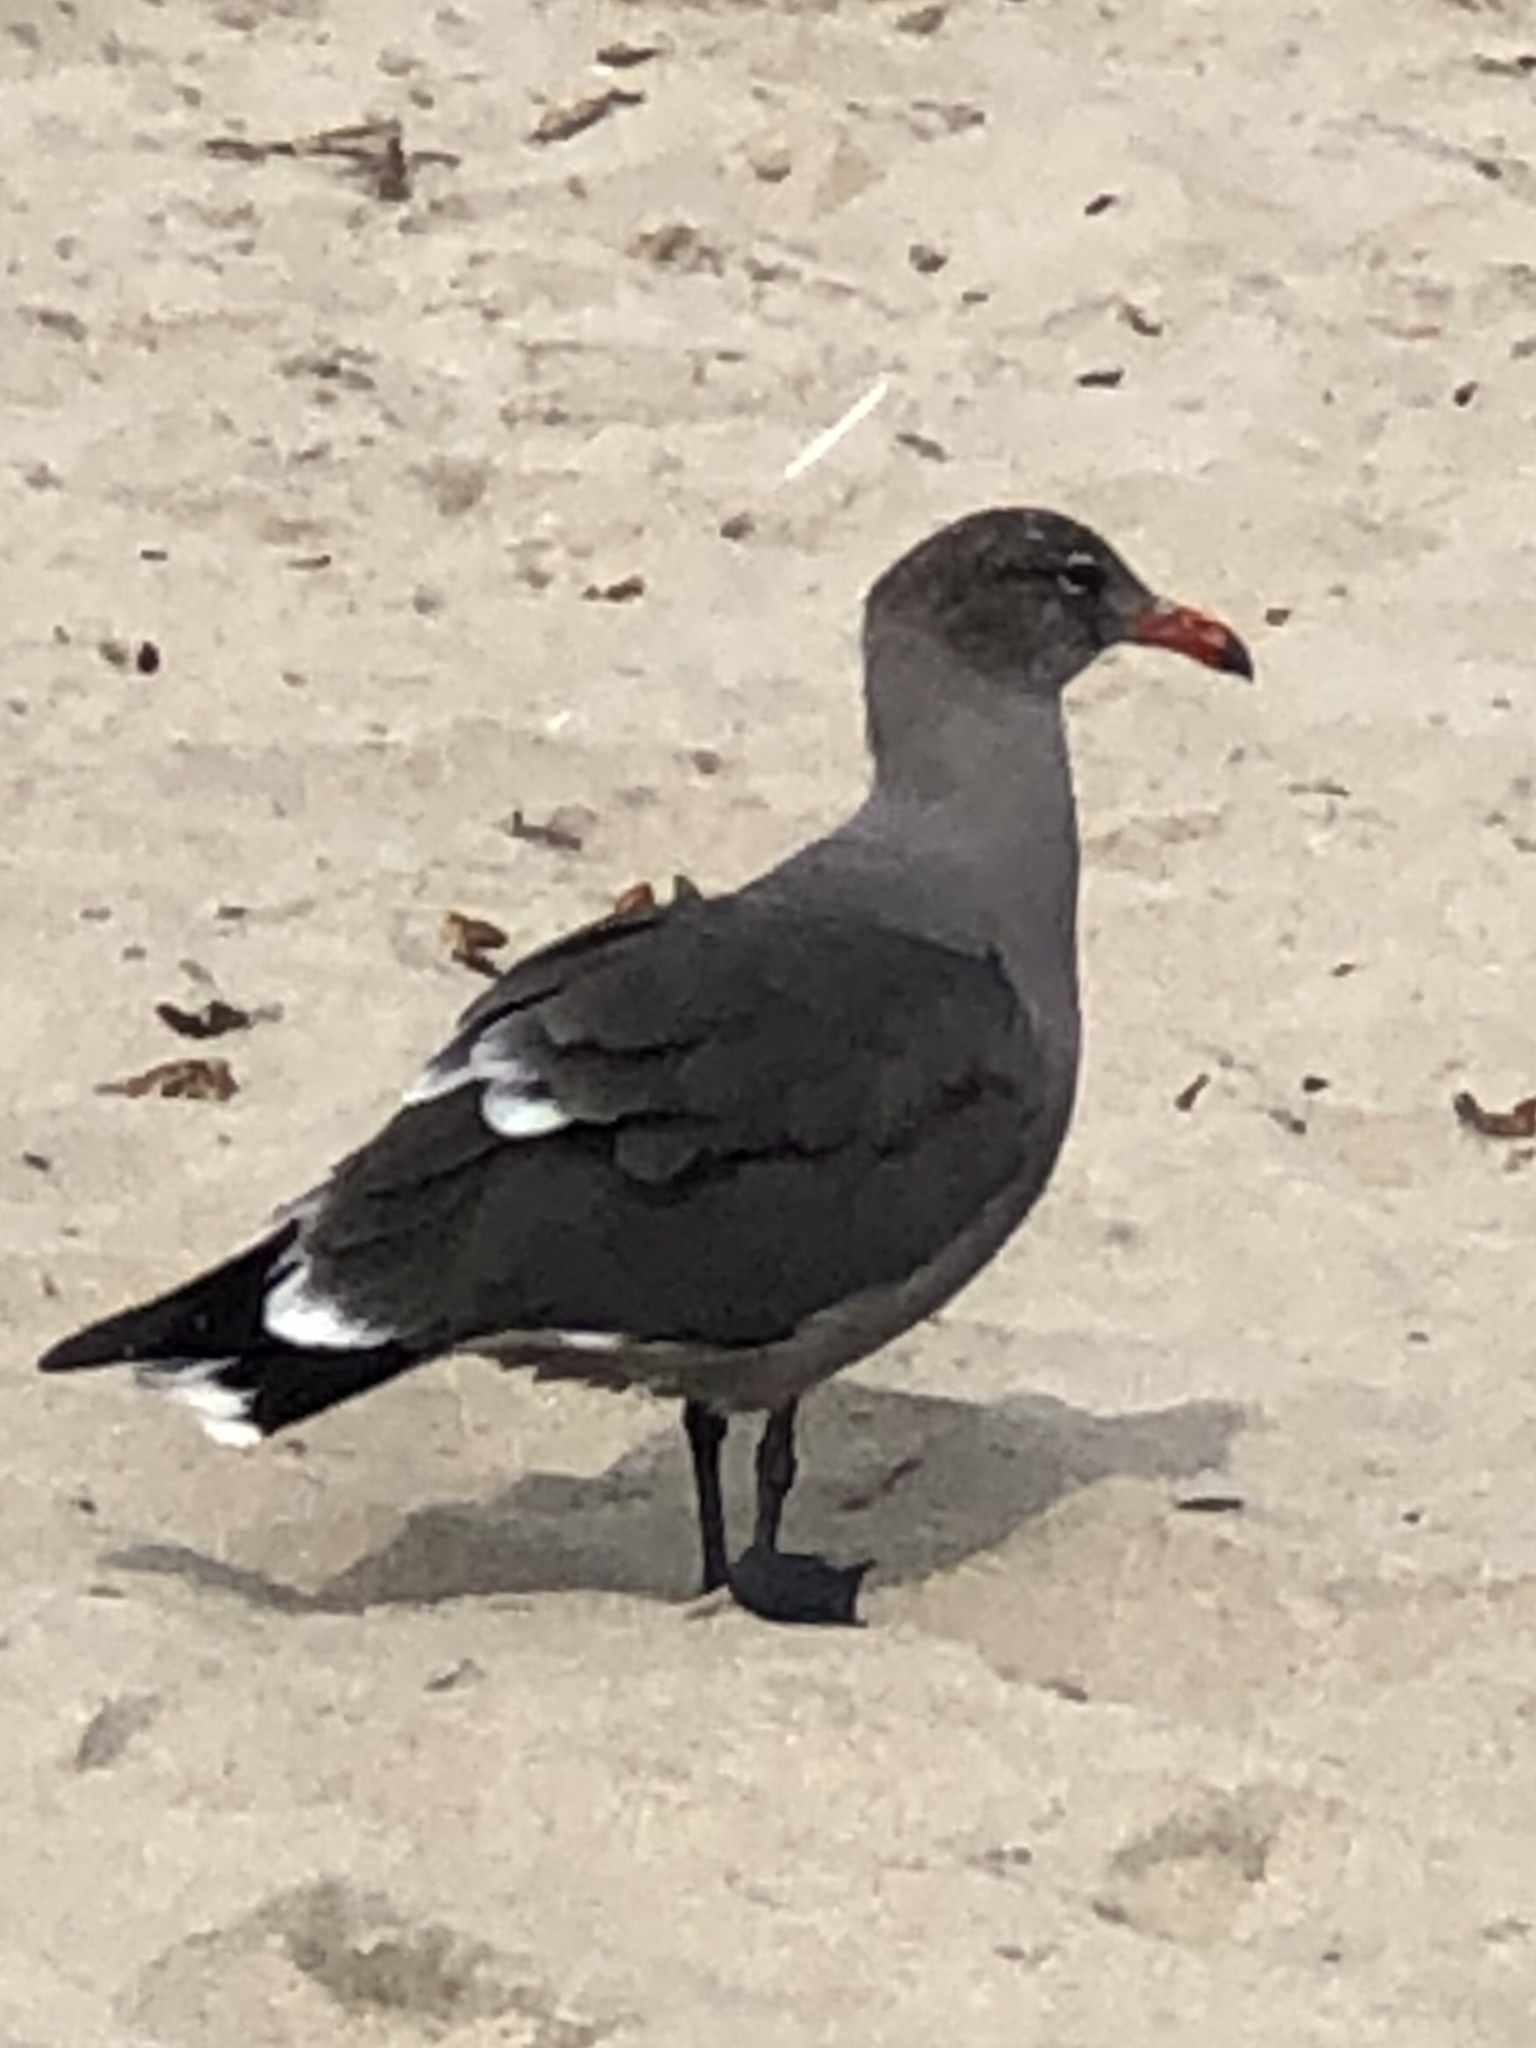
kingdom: Animalia
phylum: Chordata
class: Aves
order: Charadriiformes
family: Laridae
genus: Larus
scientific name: Larus heermanni
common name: Heermann's gull
